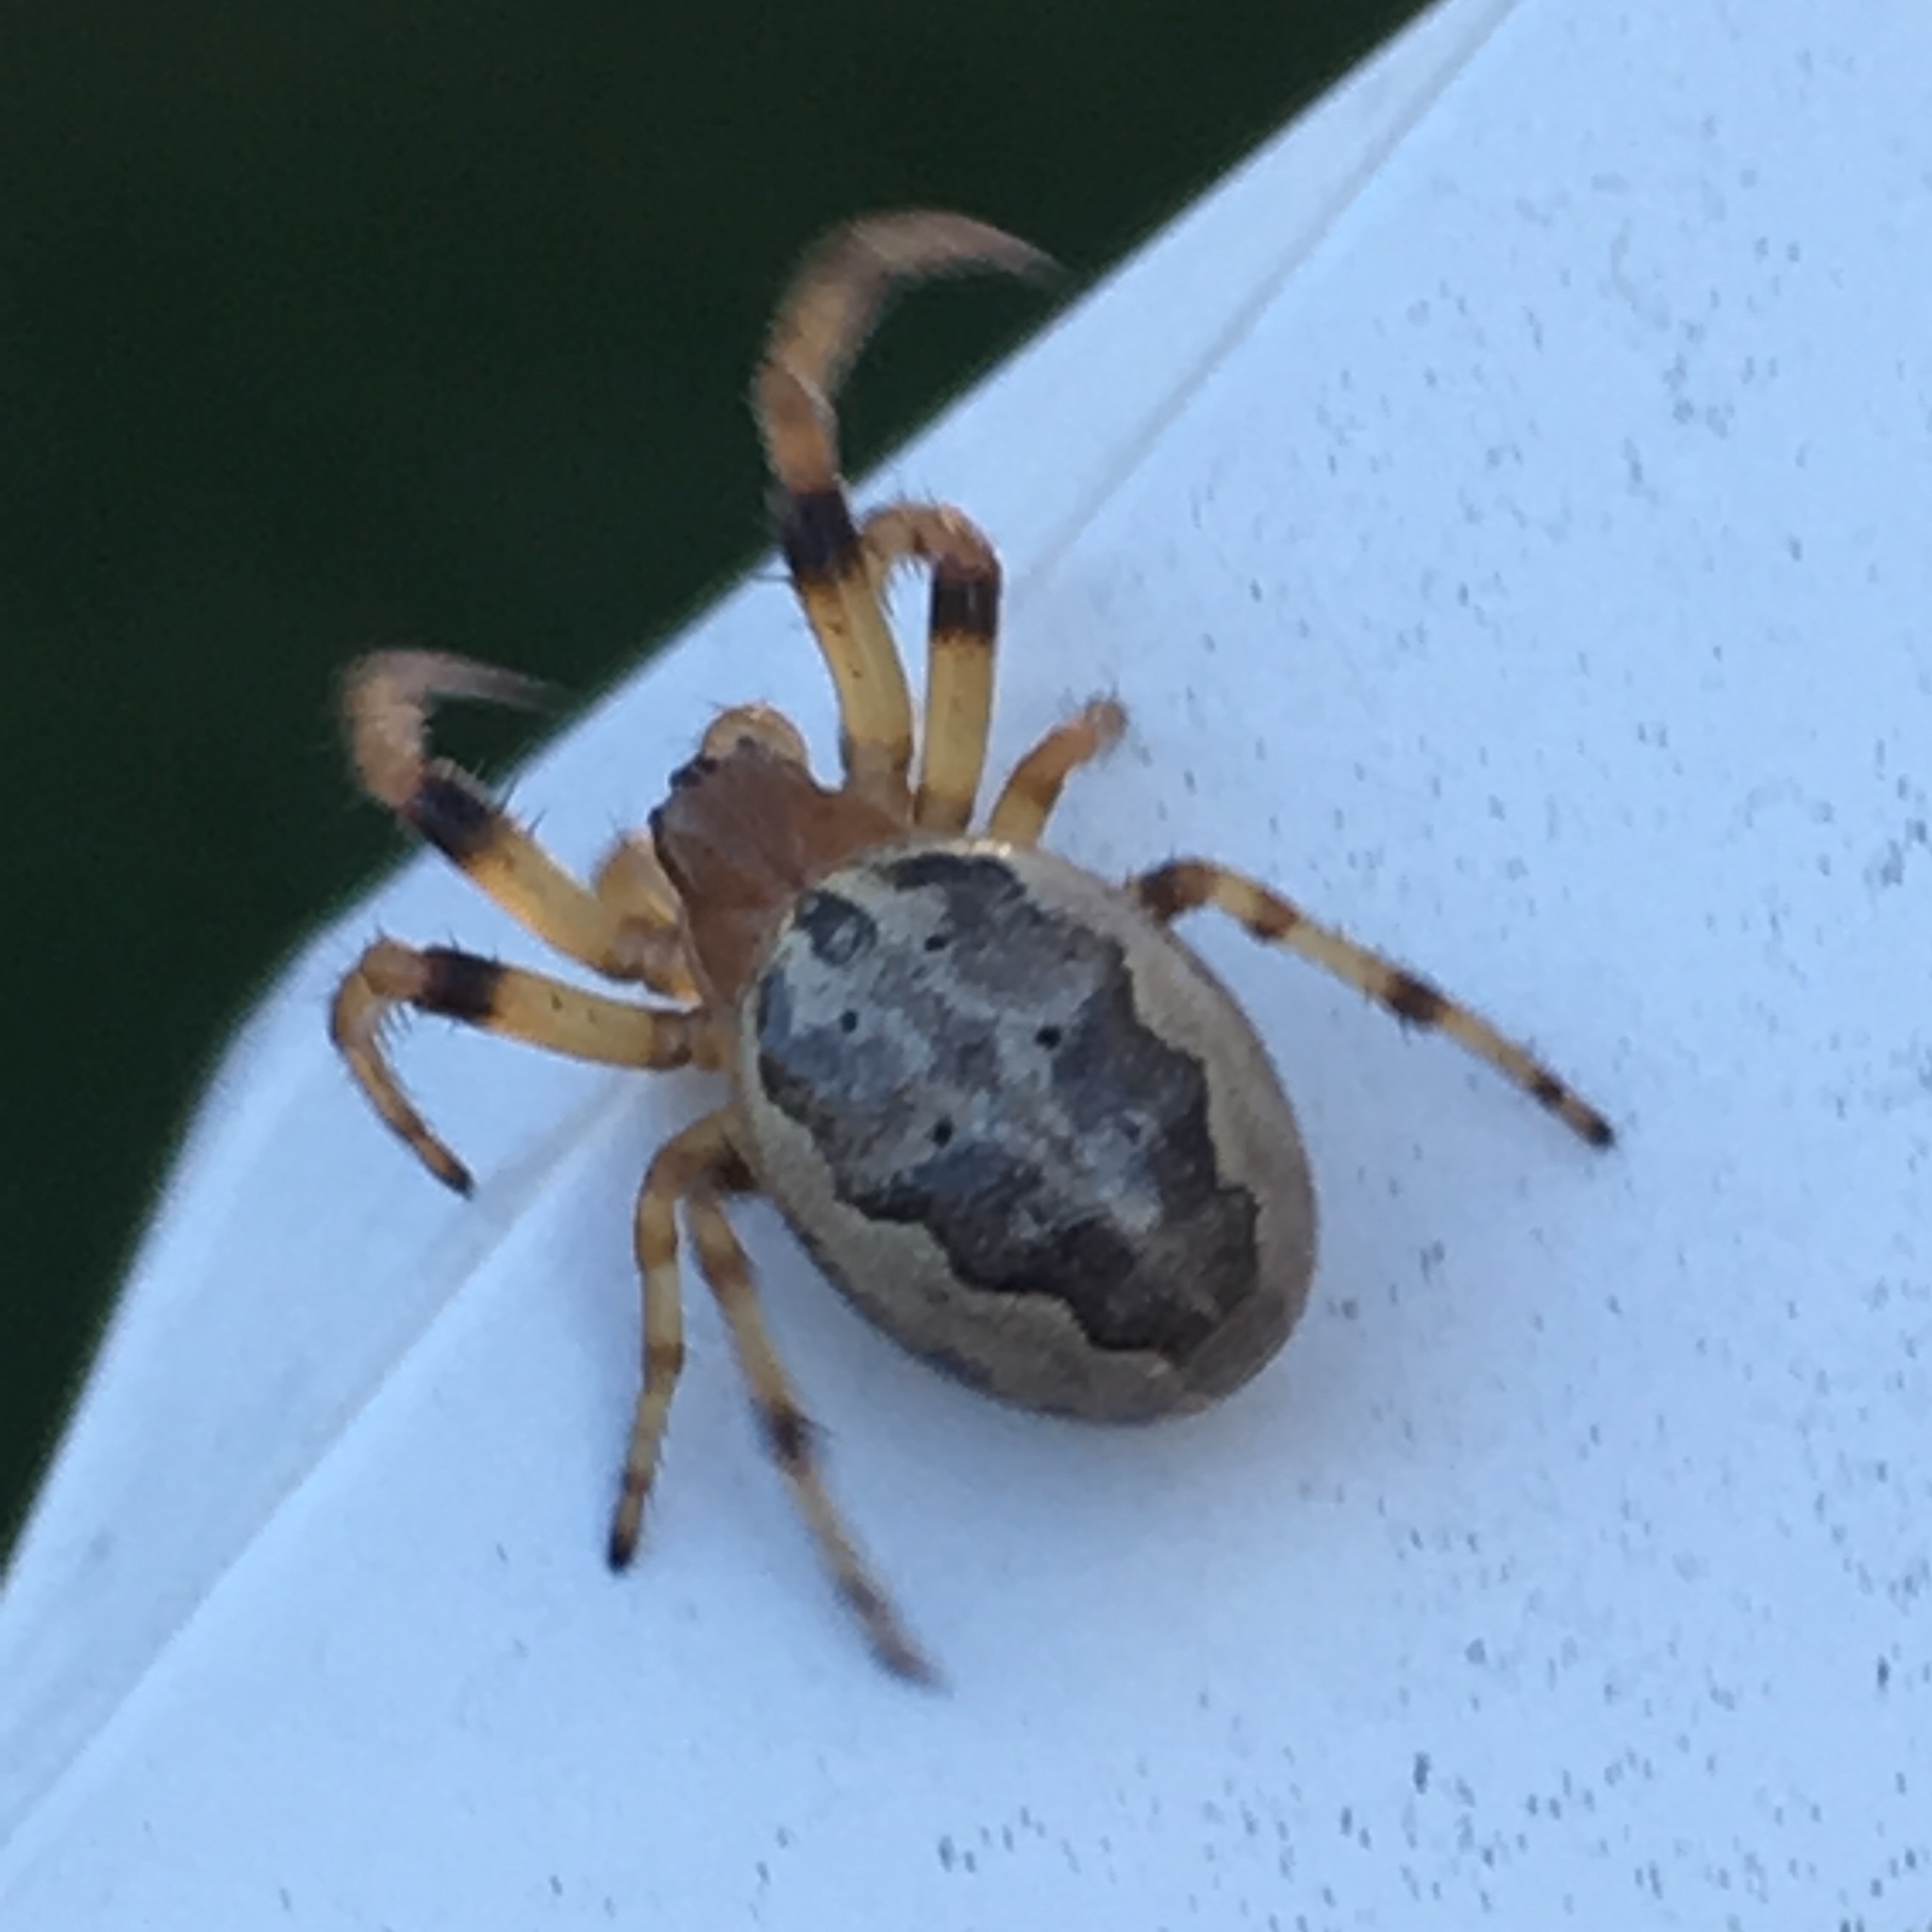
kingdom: Animalia
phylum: Arthropoda
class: Arachnida
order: Araneae
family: Araneidae
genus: Larinioides
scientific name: Larinioides cornutus
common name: Furrow orbweaver
